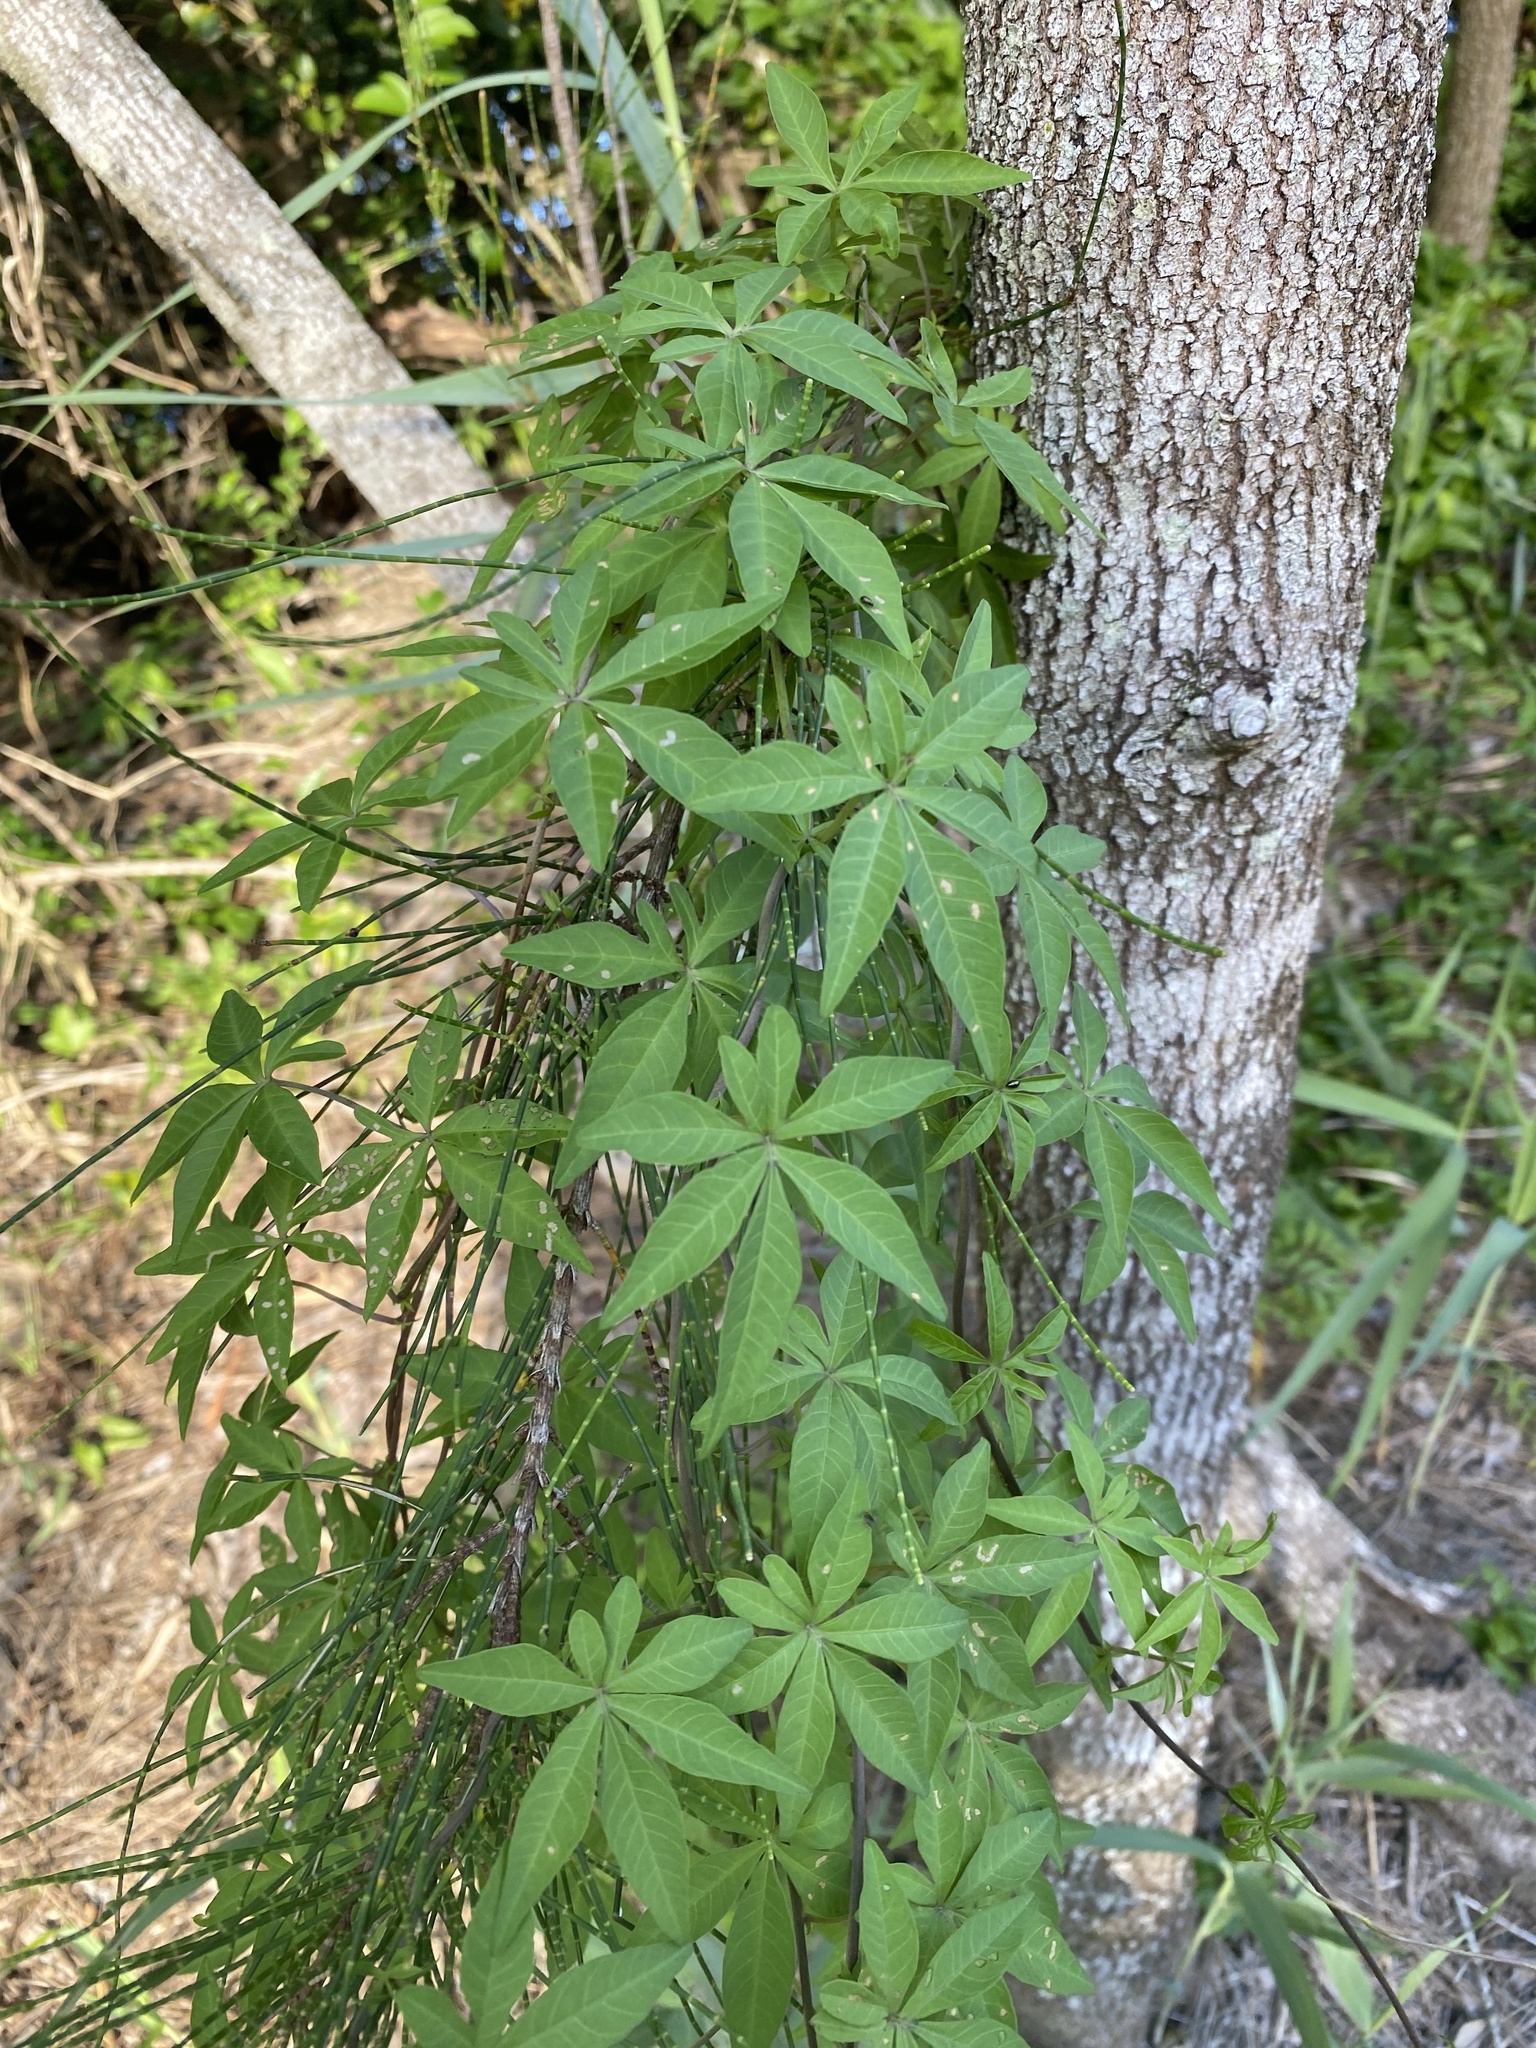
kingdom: Plantae
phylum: Tracheophyta
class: Magnoliopsida
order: Solanales
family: Convolvulaceae
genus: Ipomoea
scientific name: Ipomoea cairica
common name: Mile a minute vine
